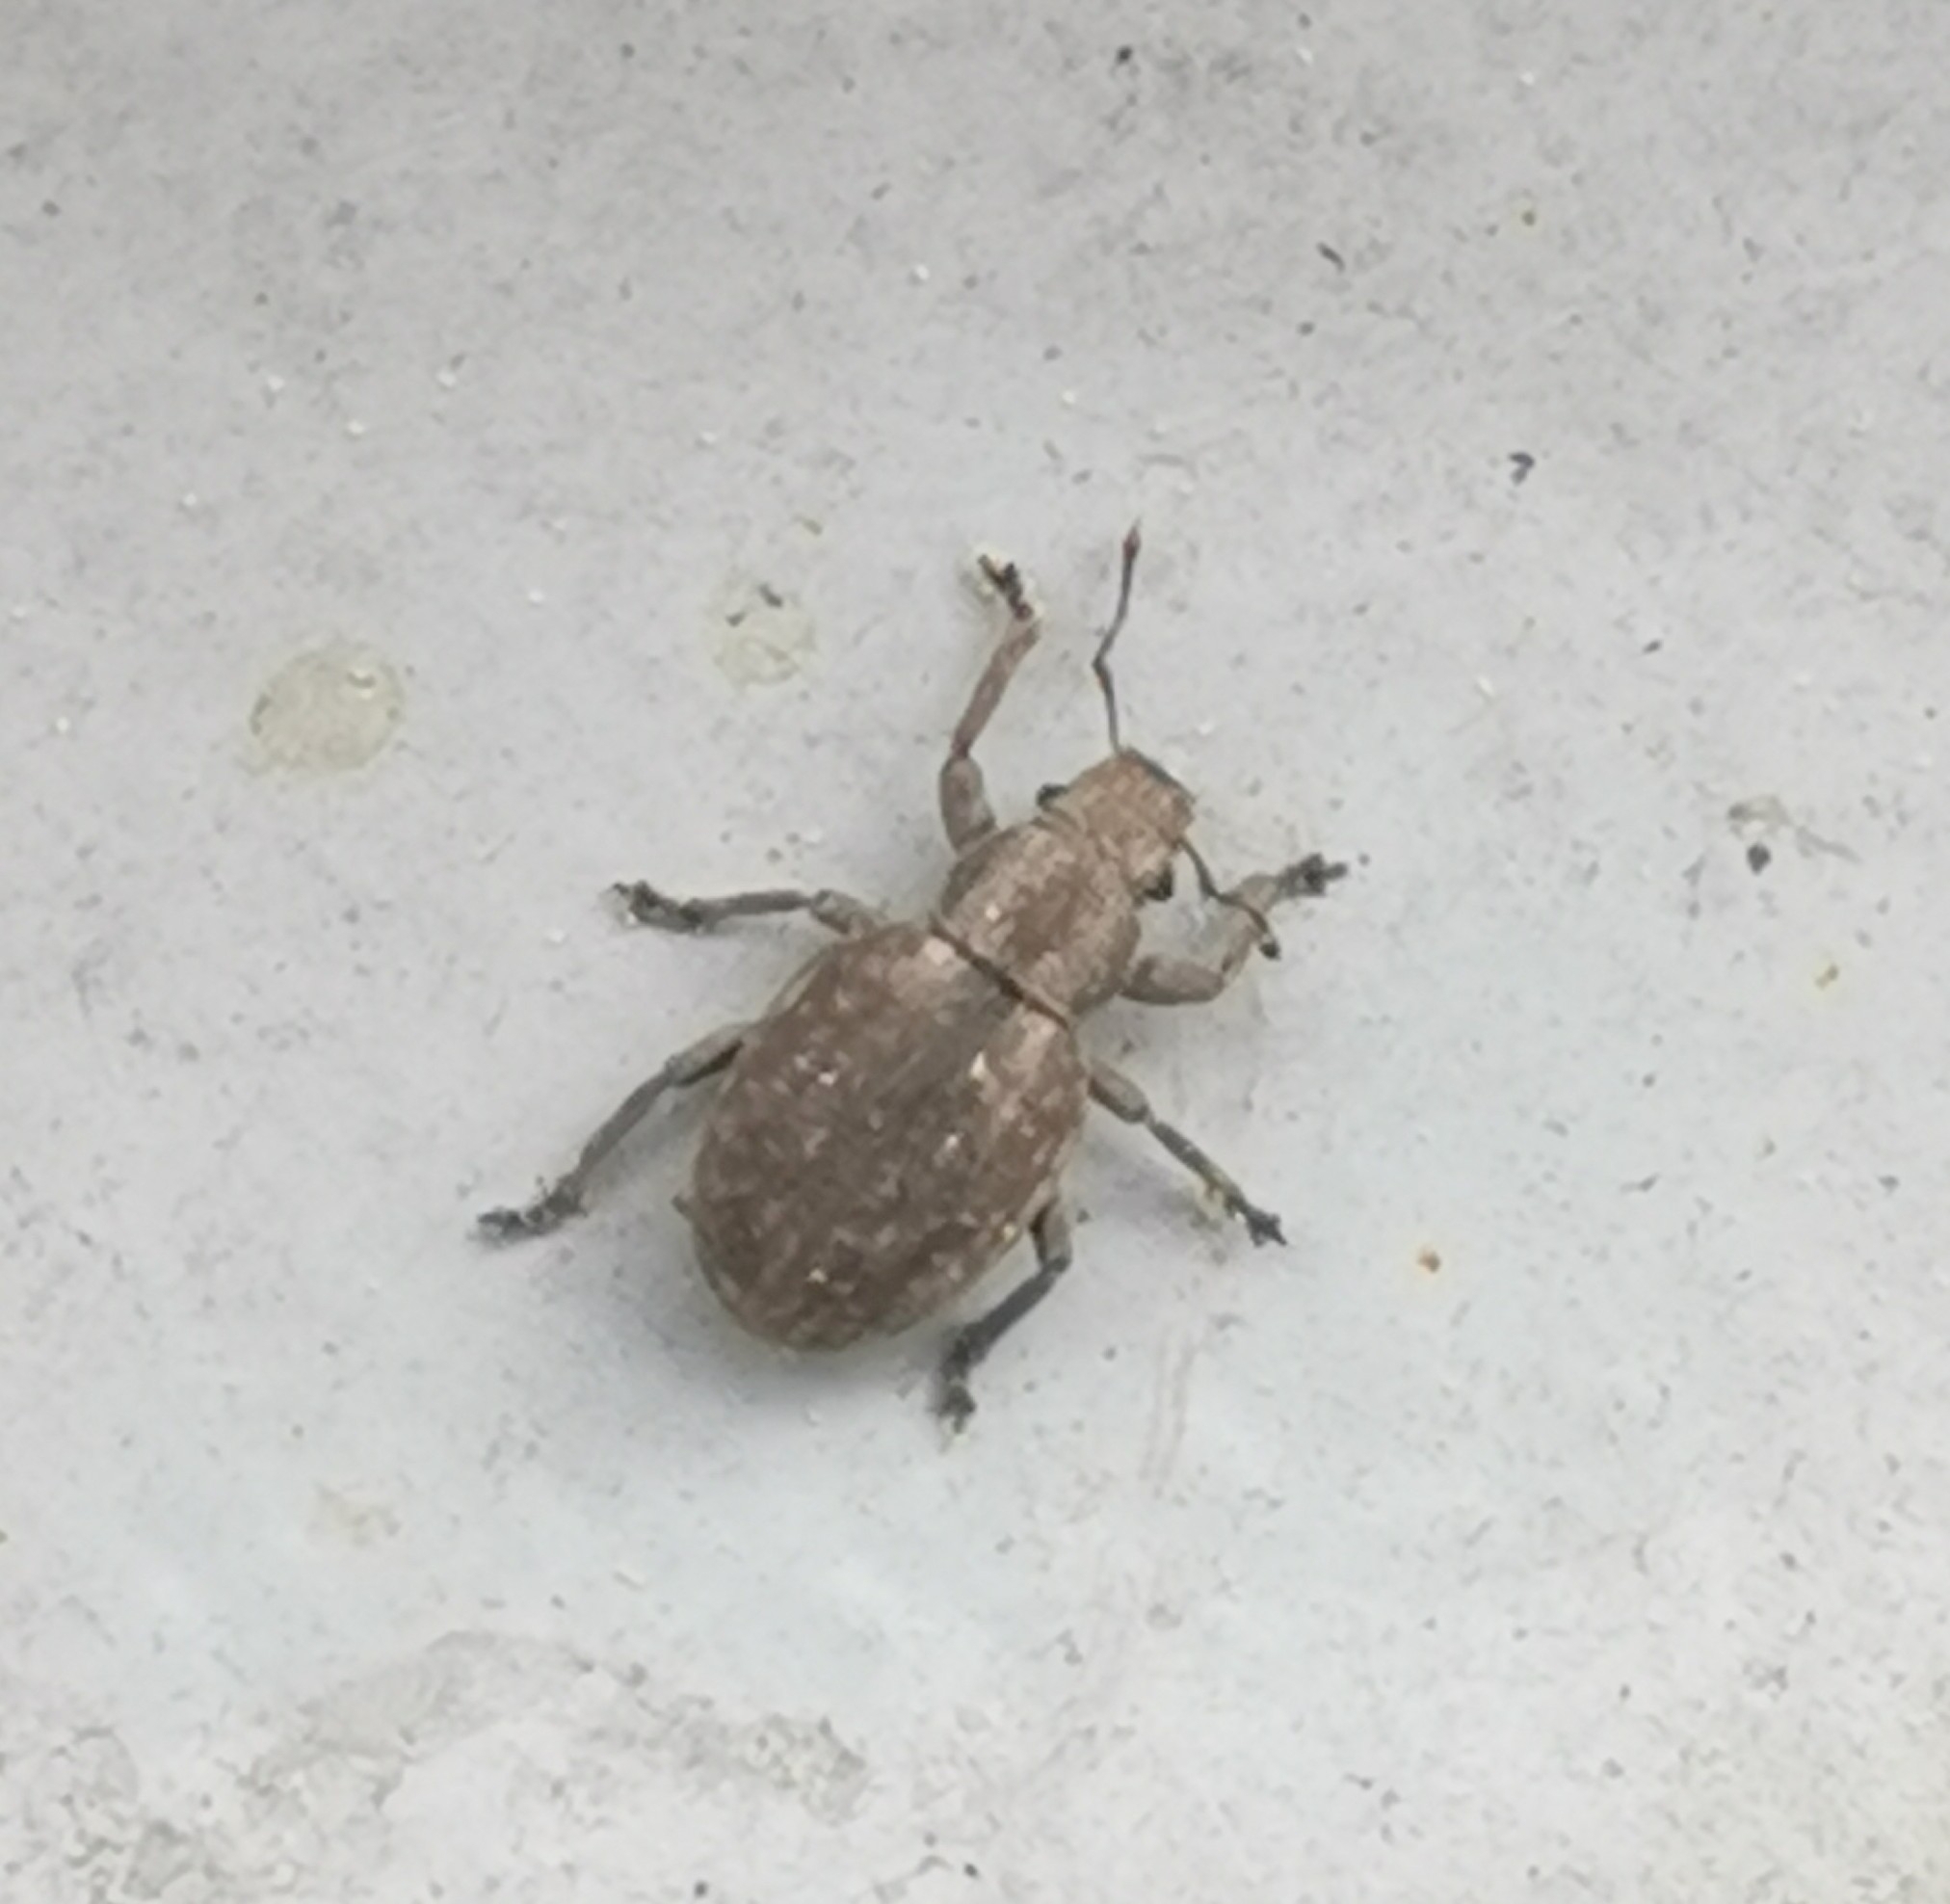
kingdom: Animalia
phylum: Arthropoda
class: Insecta
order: Coleoptera
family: Curculionidae
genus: Strophosoma
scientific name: Strophosoma capitatum
